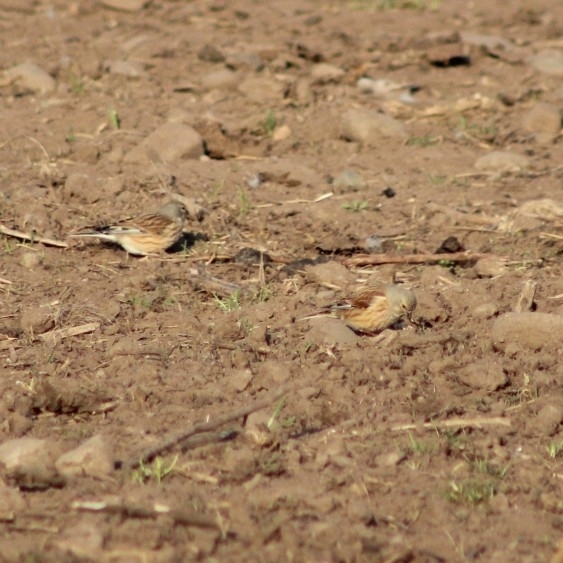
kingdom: Animalia
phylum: Chordata
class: Aves
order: Passeriformes
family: Fringillidae
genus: Linaria
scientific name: Linaria cannabina
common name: Common linnet
